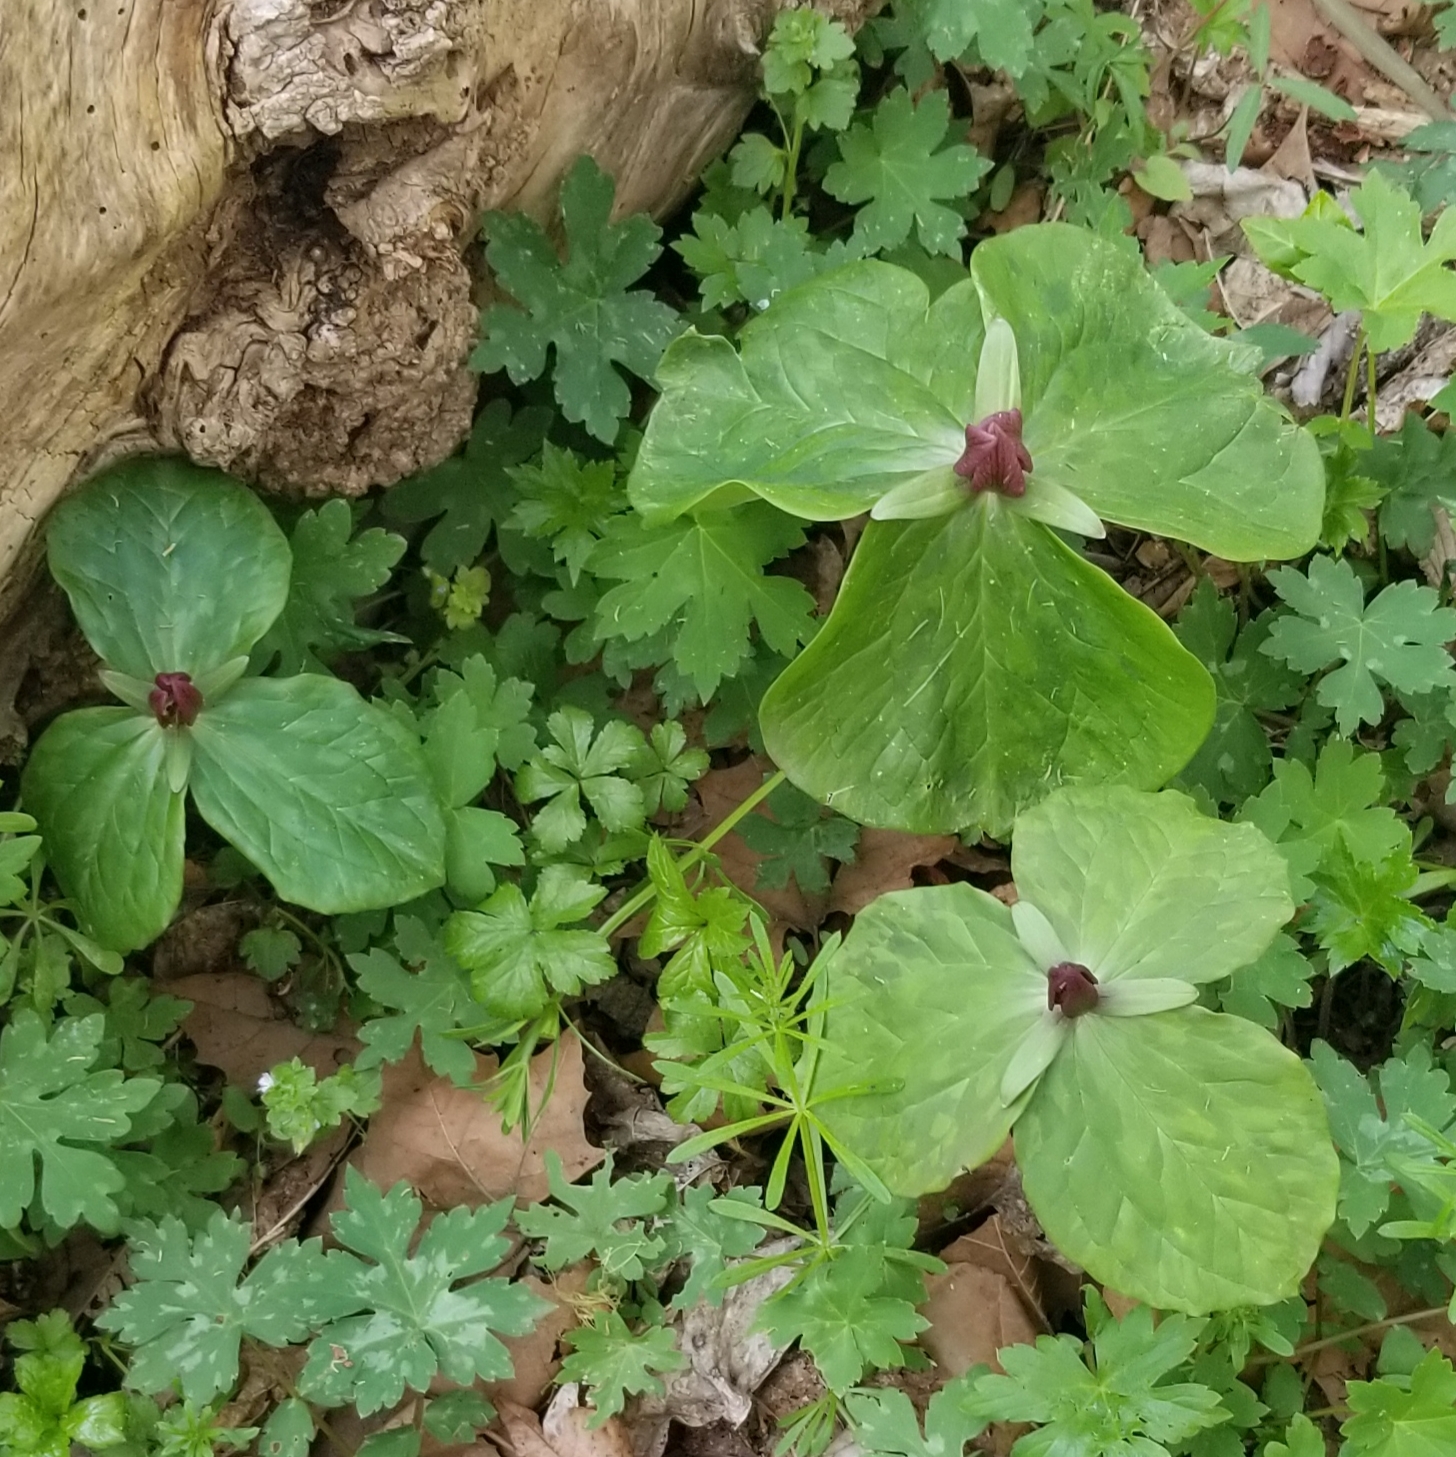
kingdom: Plantae
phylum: Tracheophyta
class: Liliopsida
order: Liliales
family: Melanthiaceae
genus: Trillium
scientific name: Trillium sessile
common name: Sessile trillium
